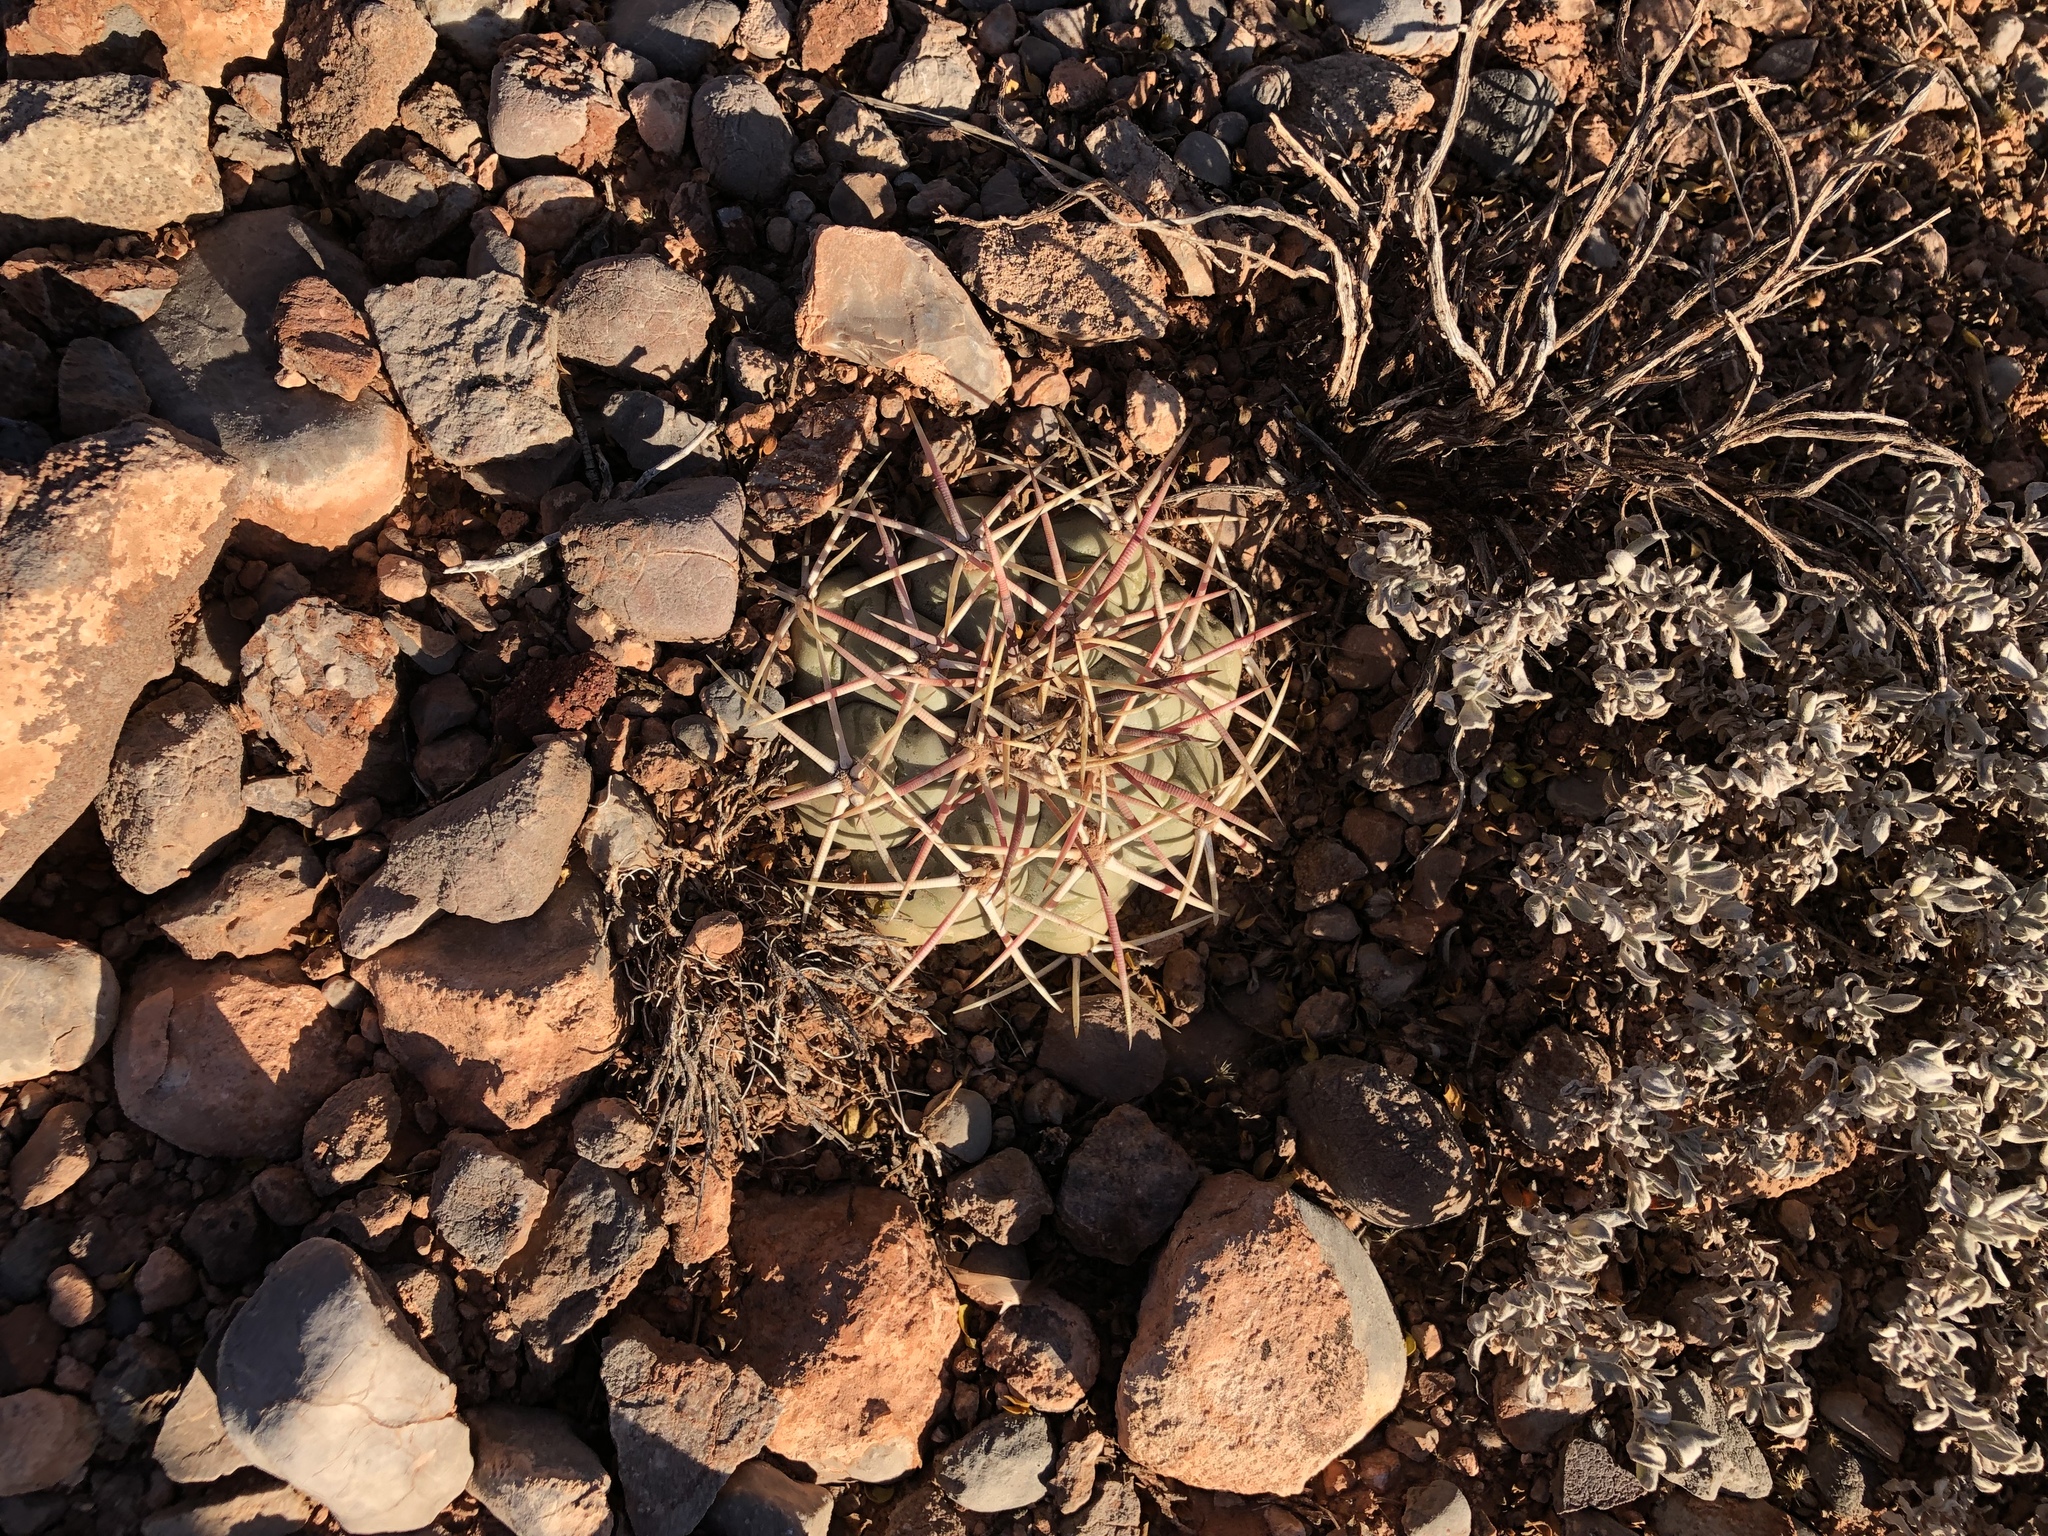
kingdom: Plantae
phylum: Tracheophyta
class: Magnoliopsida
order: Caryophyllales
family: Cactaceae
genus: Echinocactus
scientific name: Echinocactus horizonthalonius
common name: Devilshead
